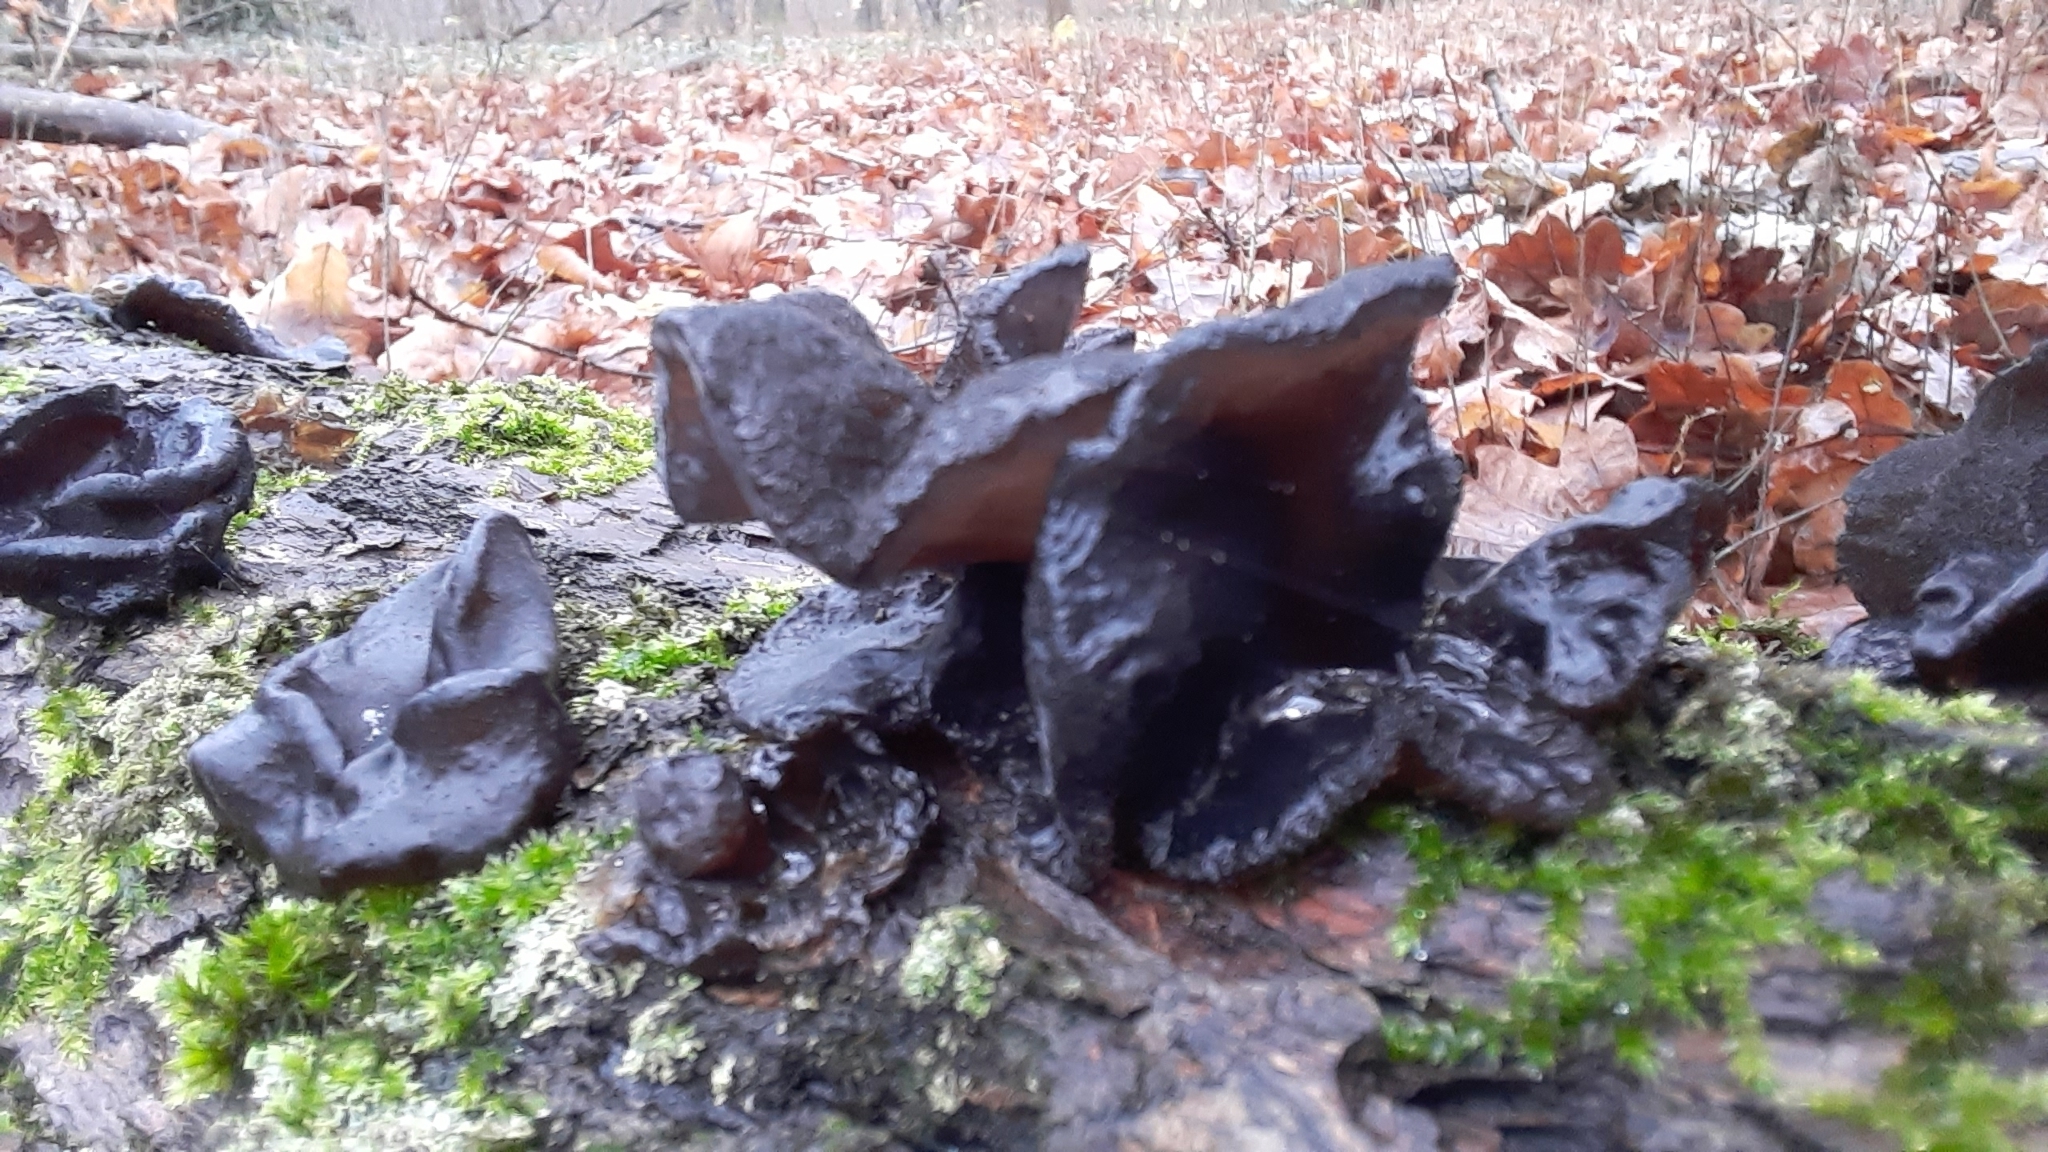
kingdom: Fungi
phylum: Basidiomycota
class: Agaricomycetes
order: Auriculariales
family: Auriculariaceae
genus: Exidia
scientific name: Exidia glandulosa
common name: Witches' butter
